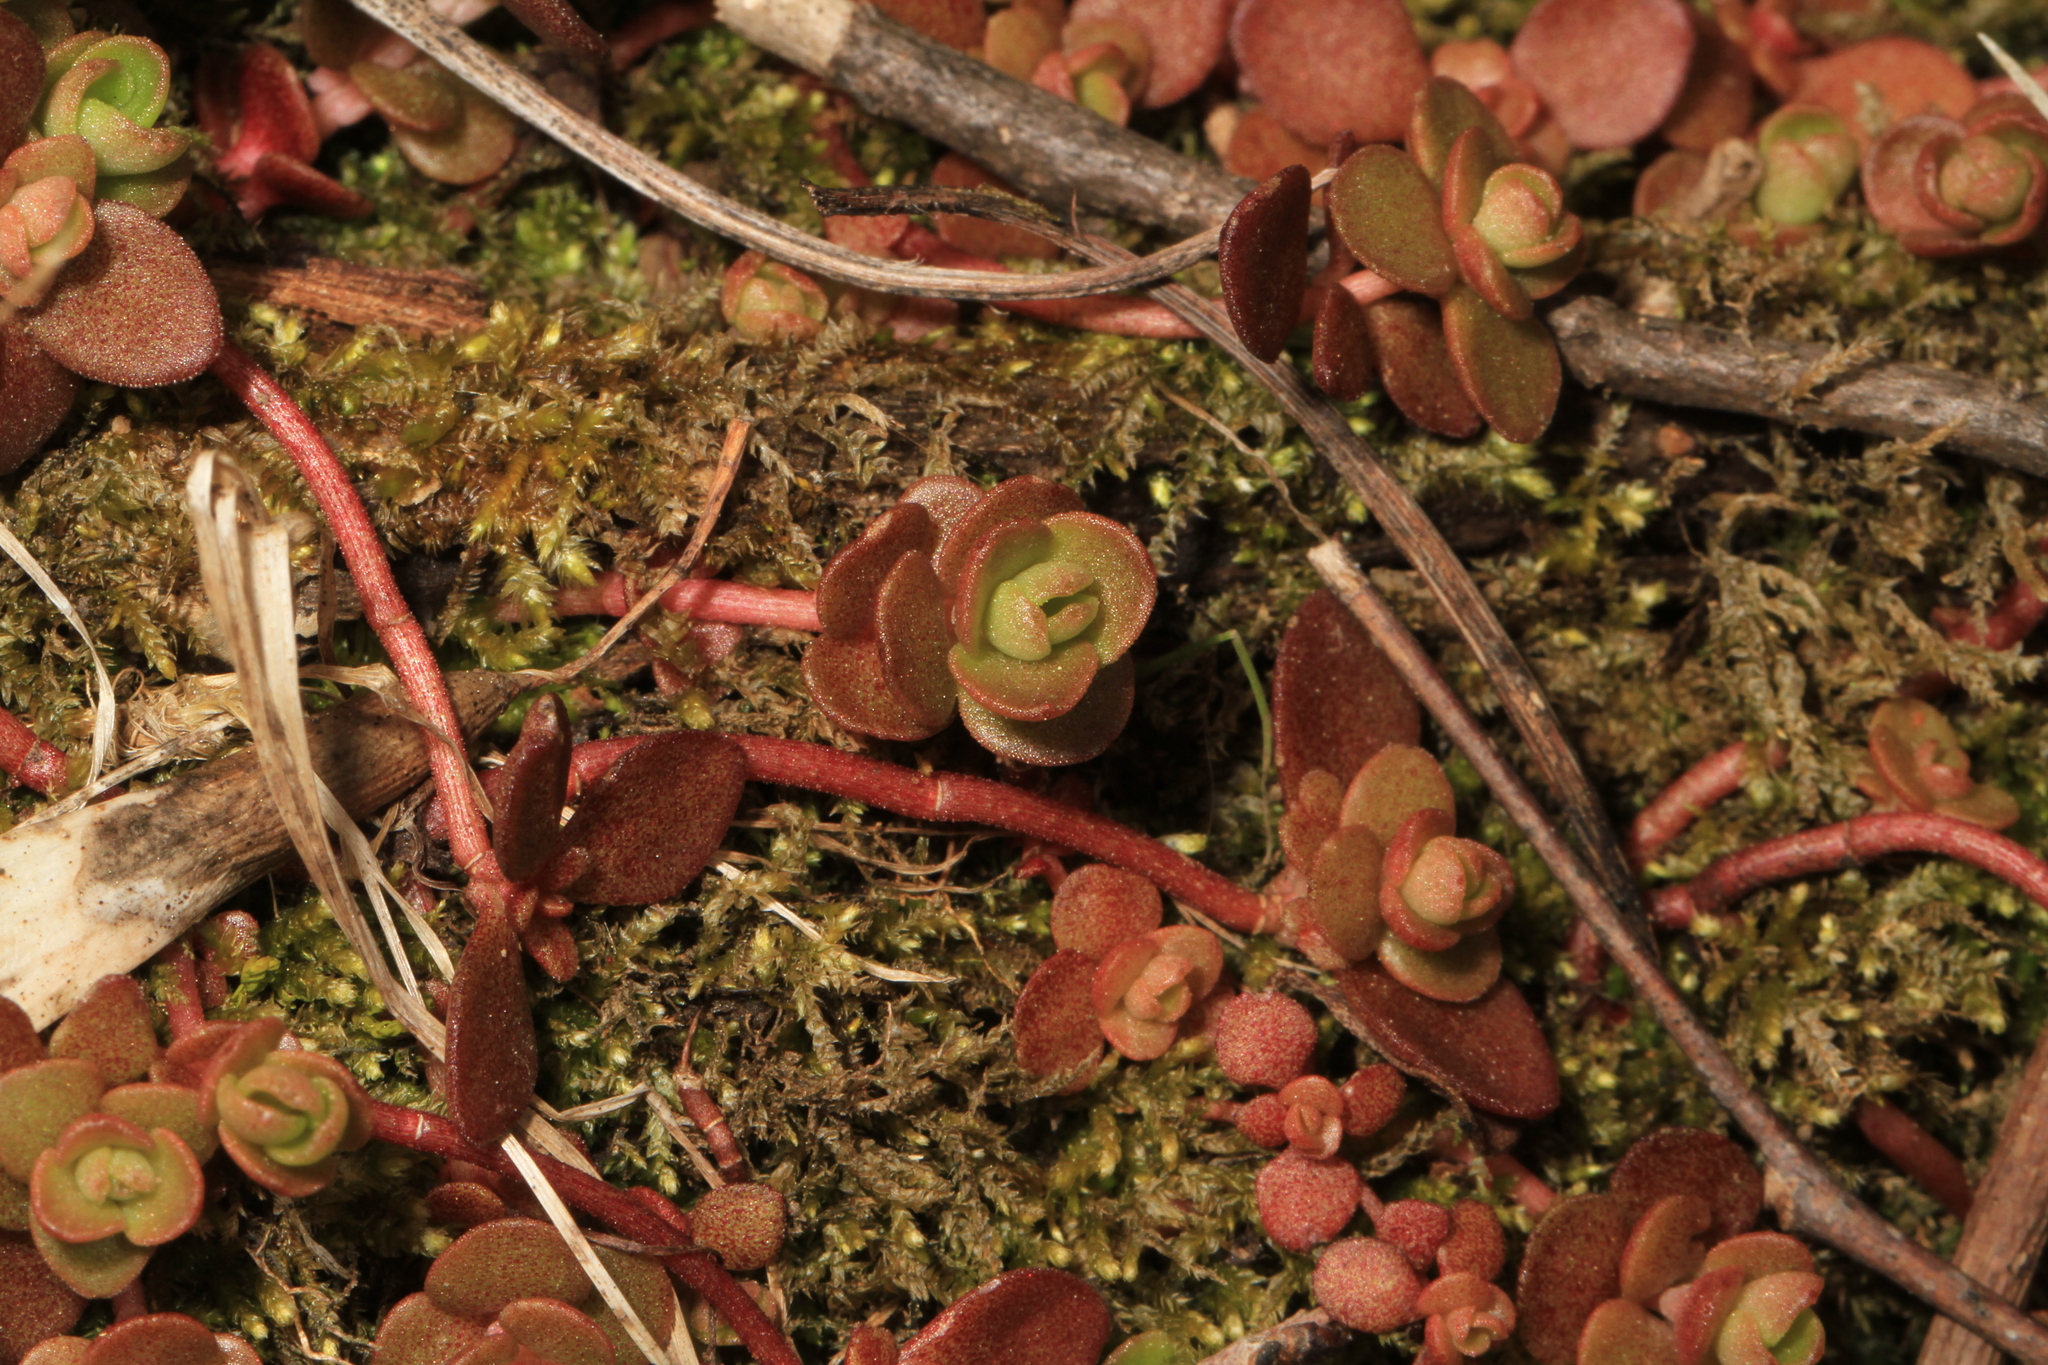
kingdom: Plantae
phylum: Tracheophyta
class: Magnoliopsida
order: Saxifragales
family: Crassulaceae
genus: Sedum
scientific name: Sedum ternatum
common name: Wild stonecrop
